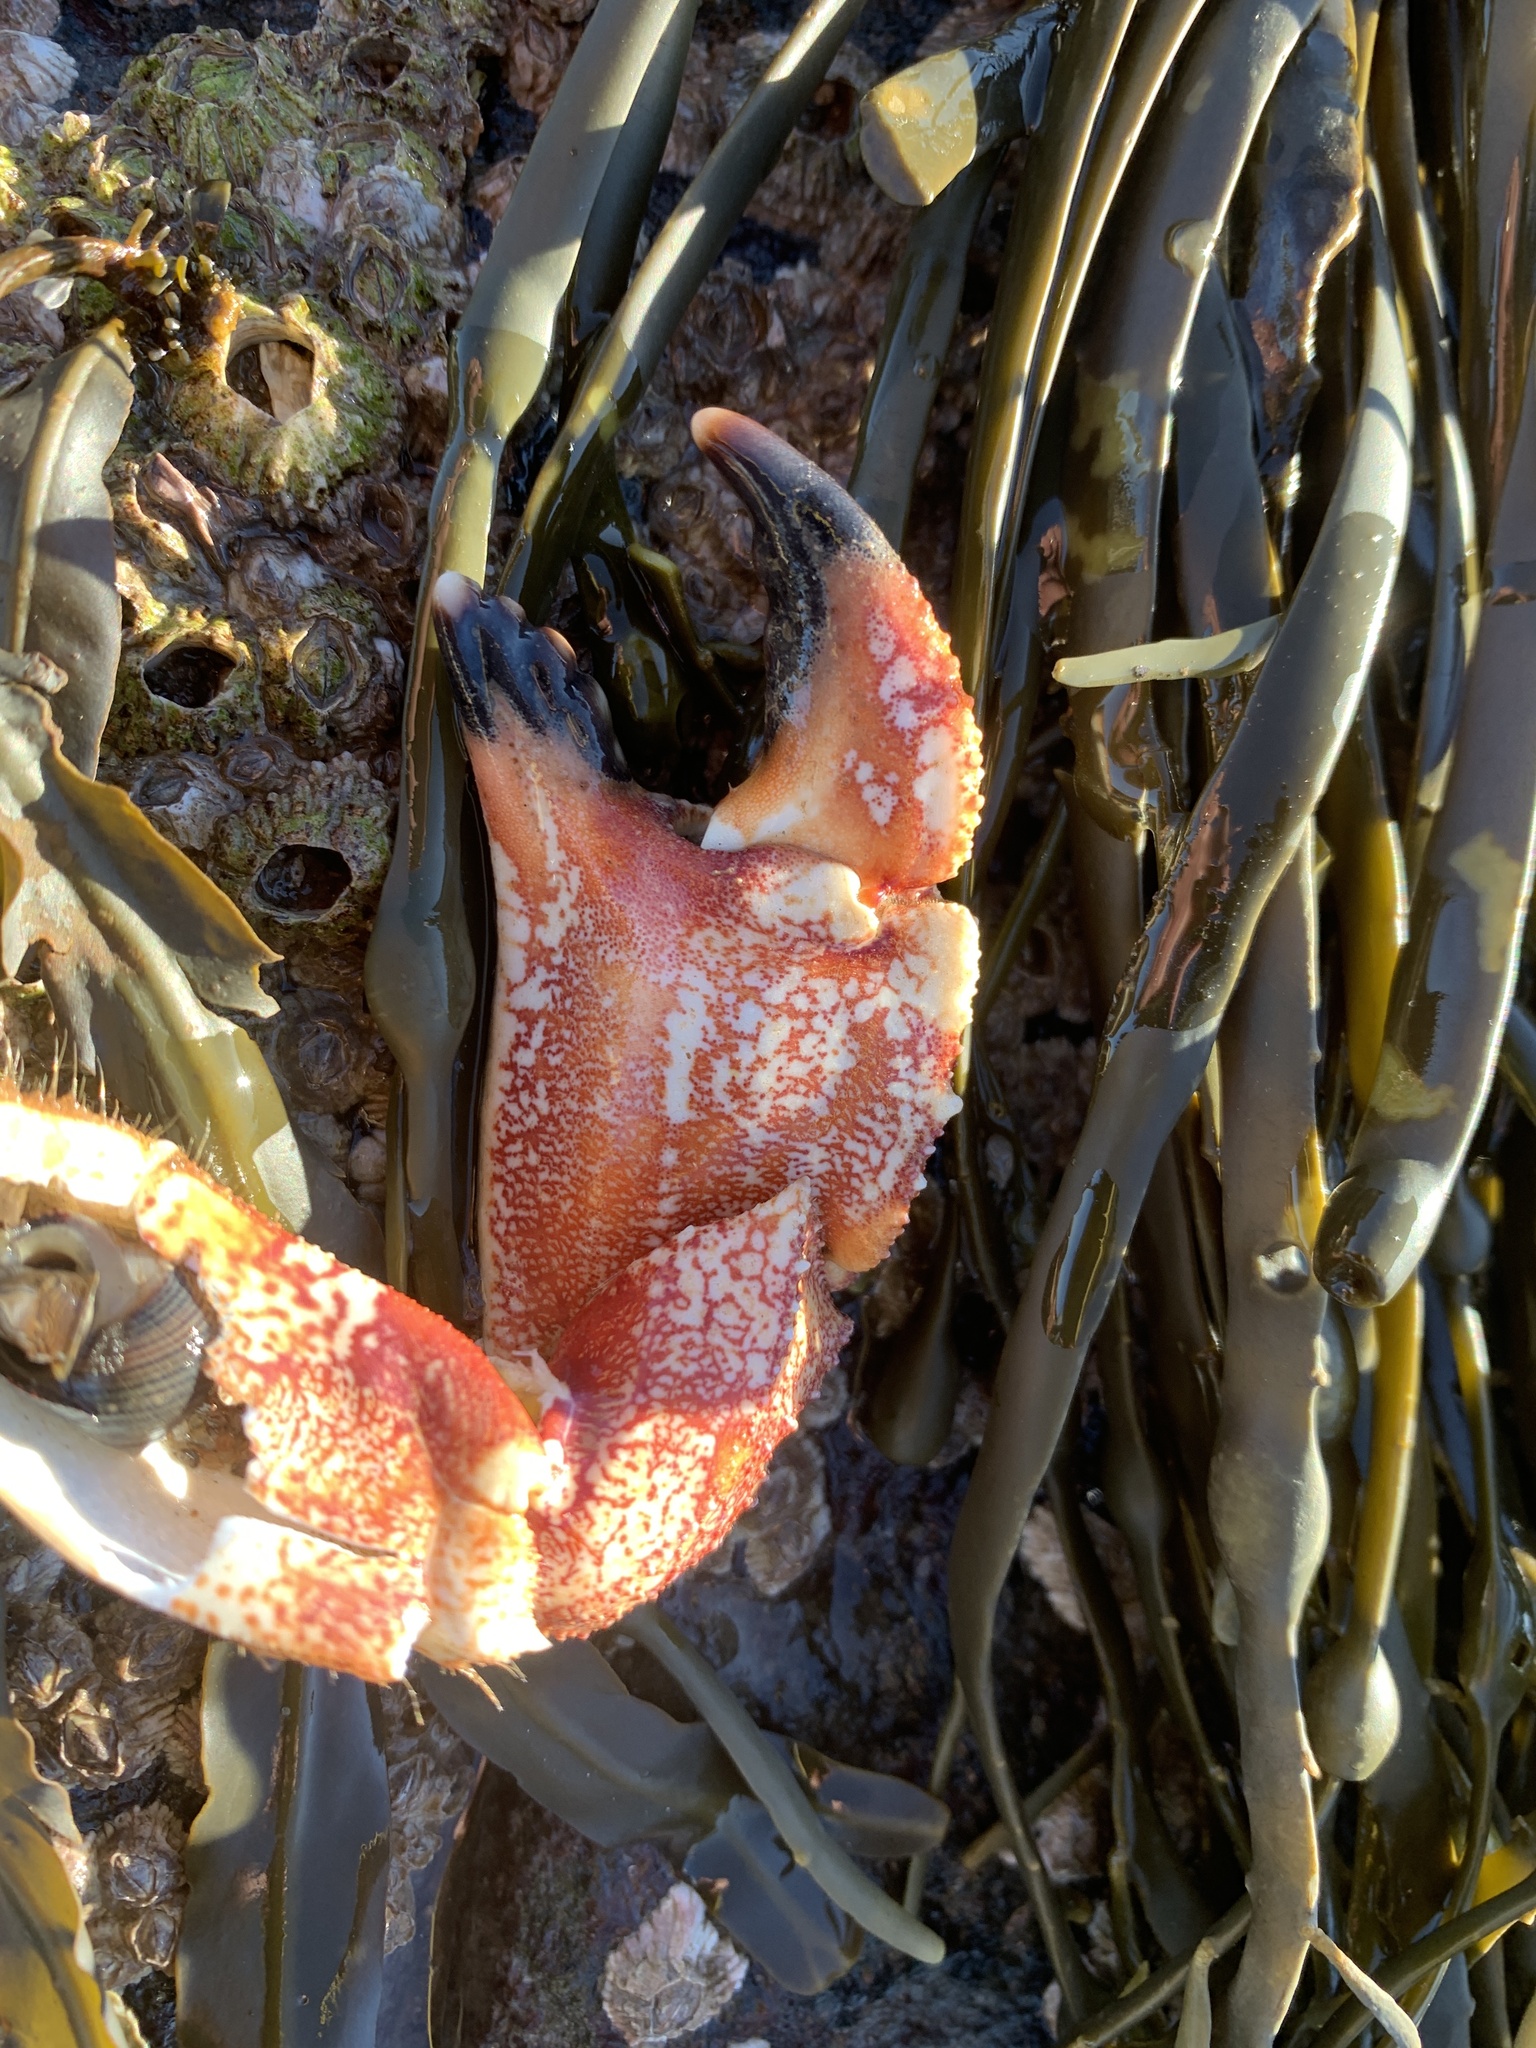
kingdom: Animalia
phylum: Arthropoda
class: Malacostraca
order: Decapoda
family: Cancridae
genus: Cancer
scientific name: Cancer borealis
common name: Jonah crab
